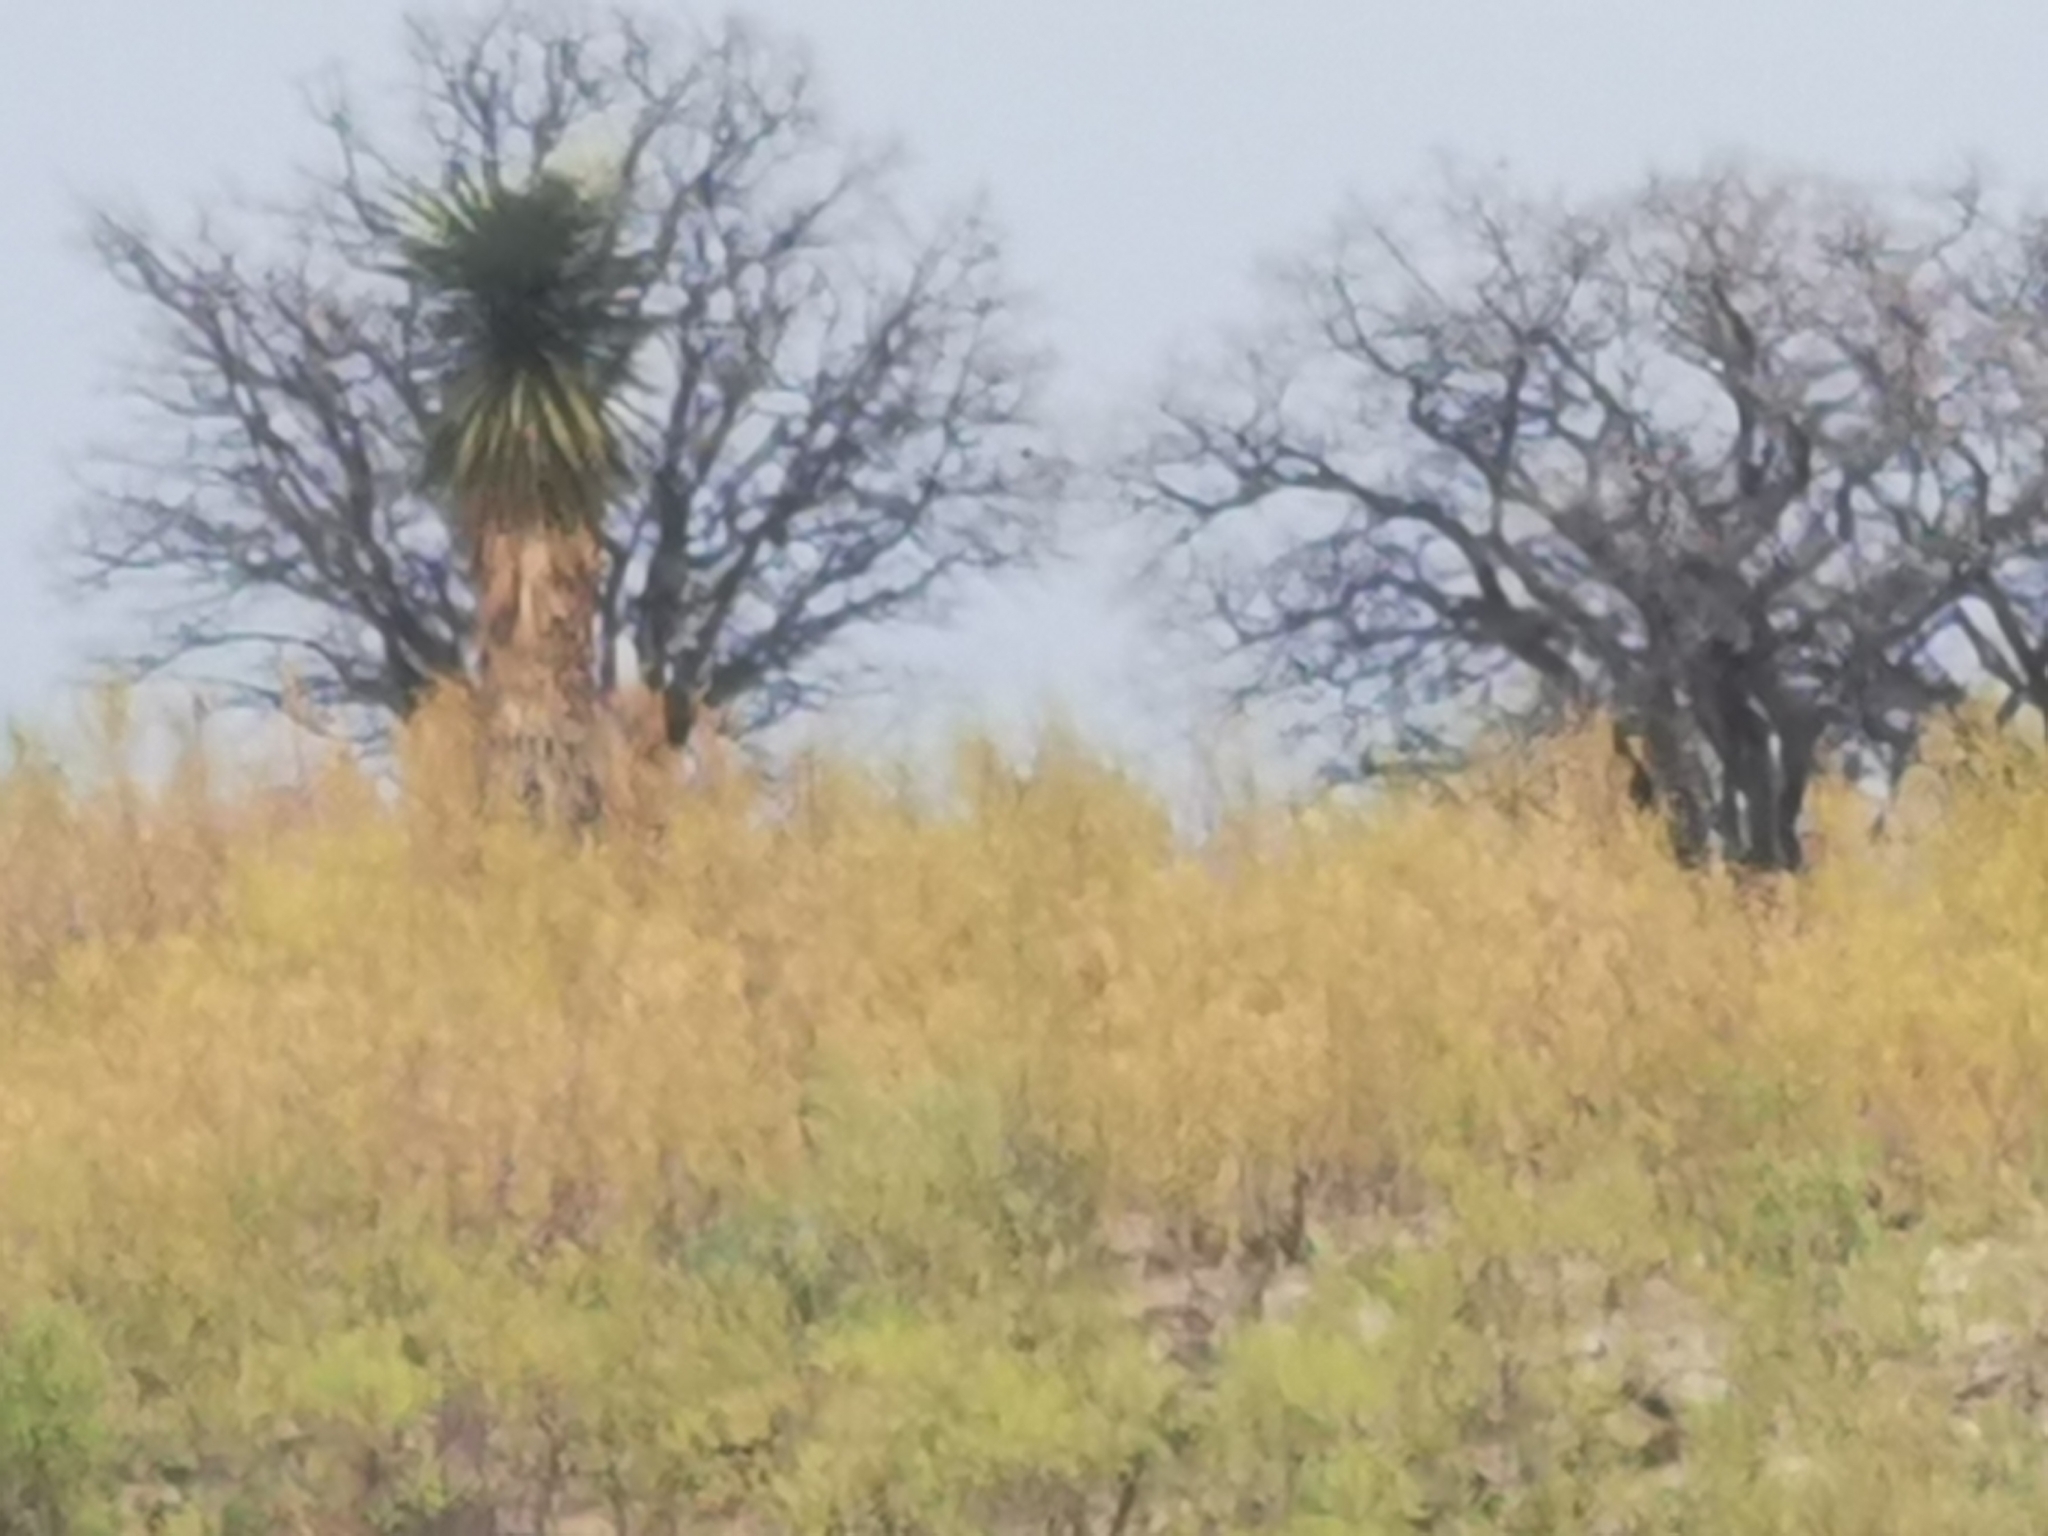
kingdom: Plantae
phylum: Tracheophyta
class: Liliopsida
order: Asparagales
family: Asparagaceae
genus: Yucca
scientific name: Yucca decipiens
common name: Chinese palm
